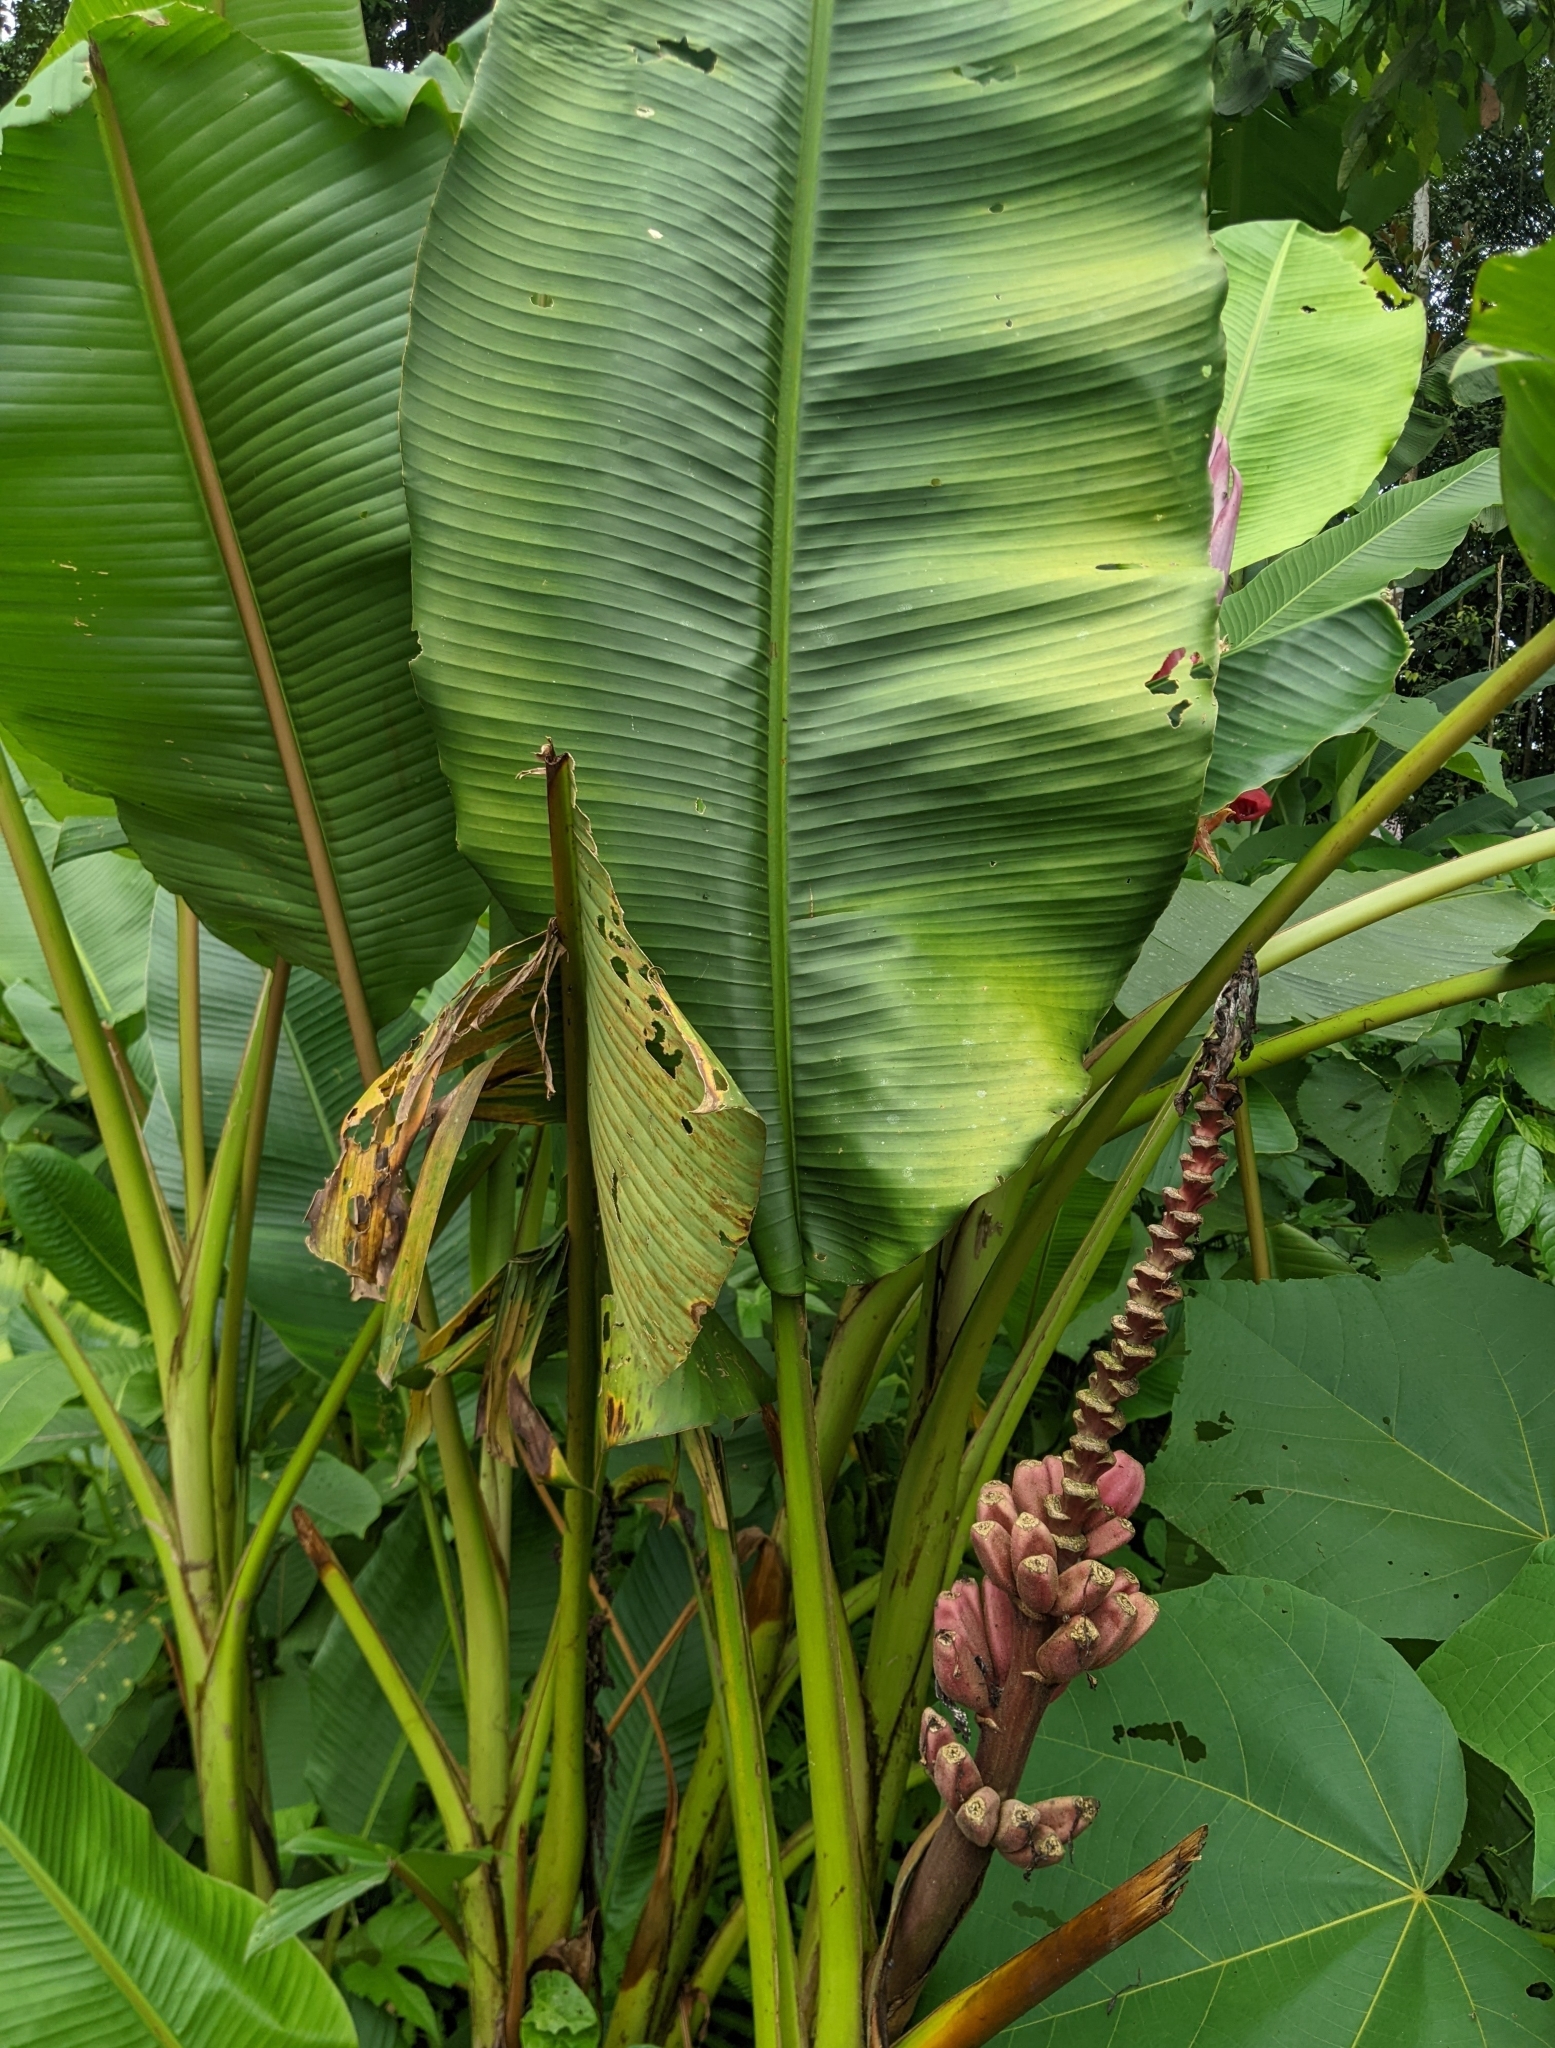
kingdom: Plantae
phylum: Tracheophyta
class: Liliopsida
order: Zingiberales
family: Musaceae
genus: Musa
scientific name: Musa velutina
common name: Pink velvet banana
